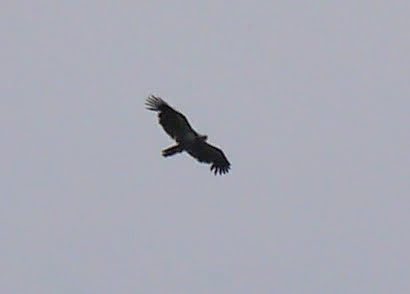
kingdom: Animalia
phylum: Chordata
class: Aves
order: Accipitriformes
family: Accipitridae
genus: Haliaeetus
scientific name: Haliaeetus leucocephalus
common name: Bald eagle
